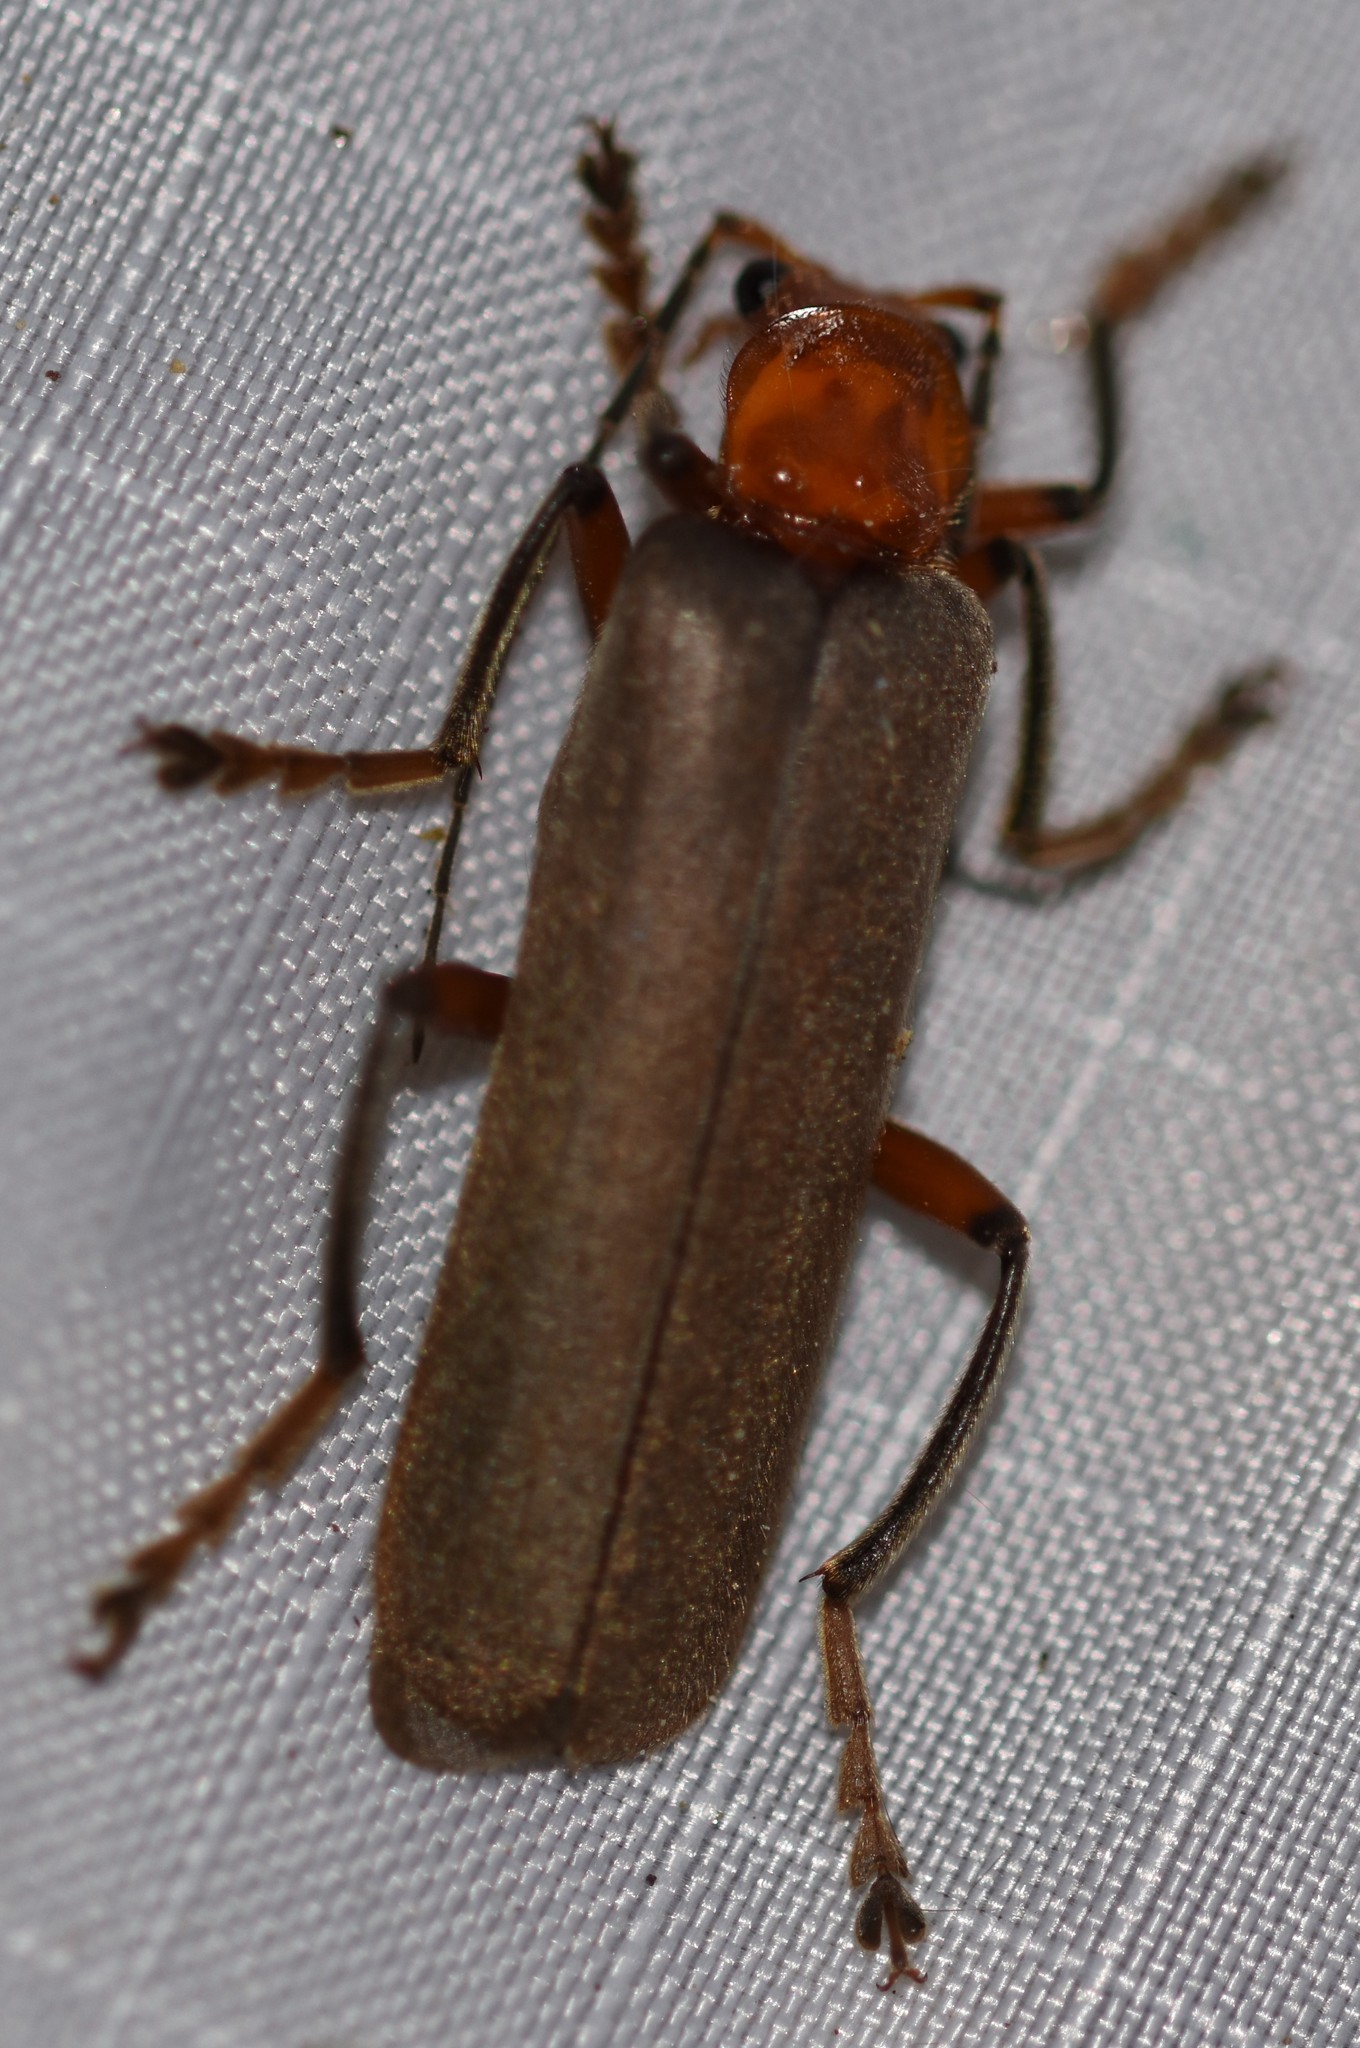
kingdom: Animalia
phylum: Arthropoda
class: Insecta
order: Coleoptera
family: Cantharidae
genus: Pacificanthia
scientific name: Pacificanthia consors
